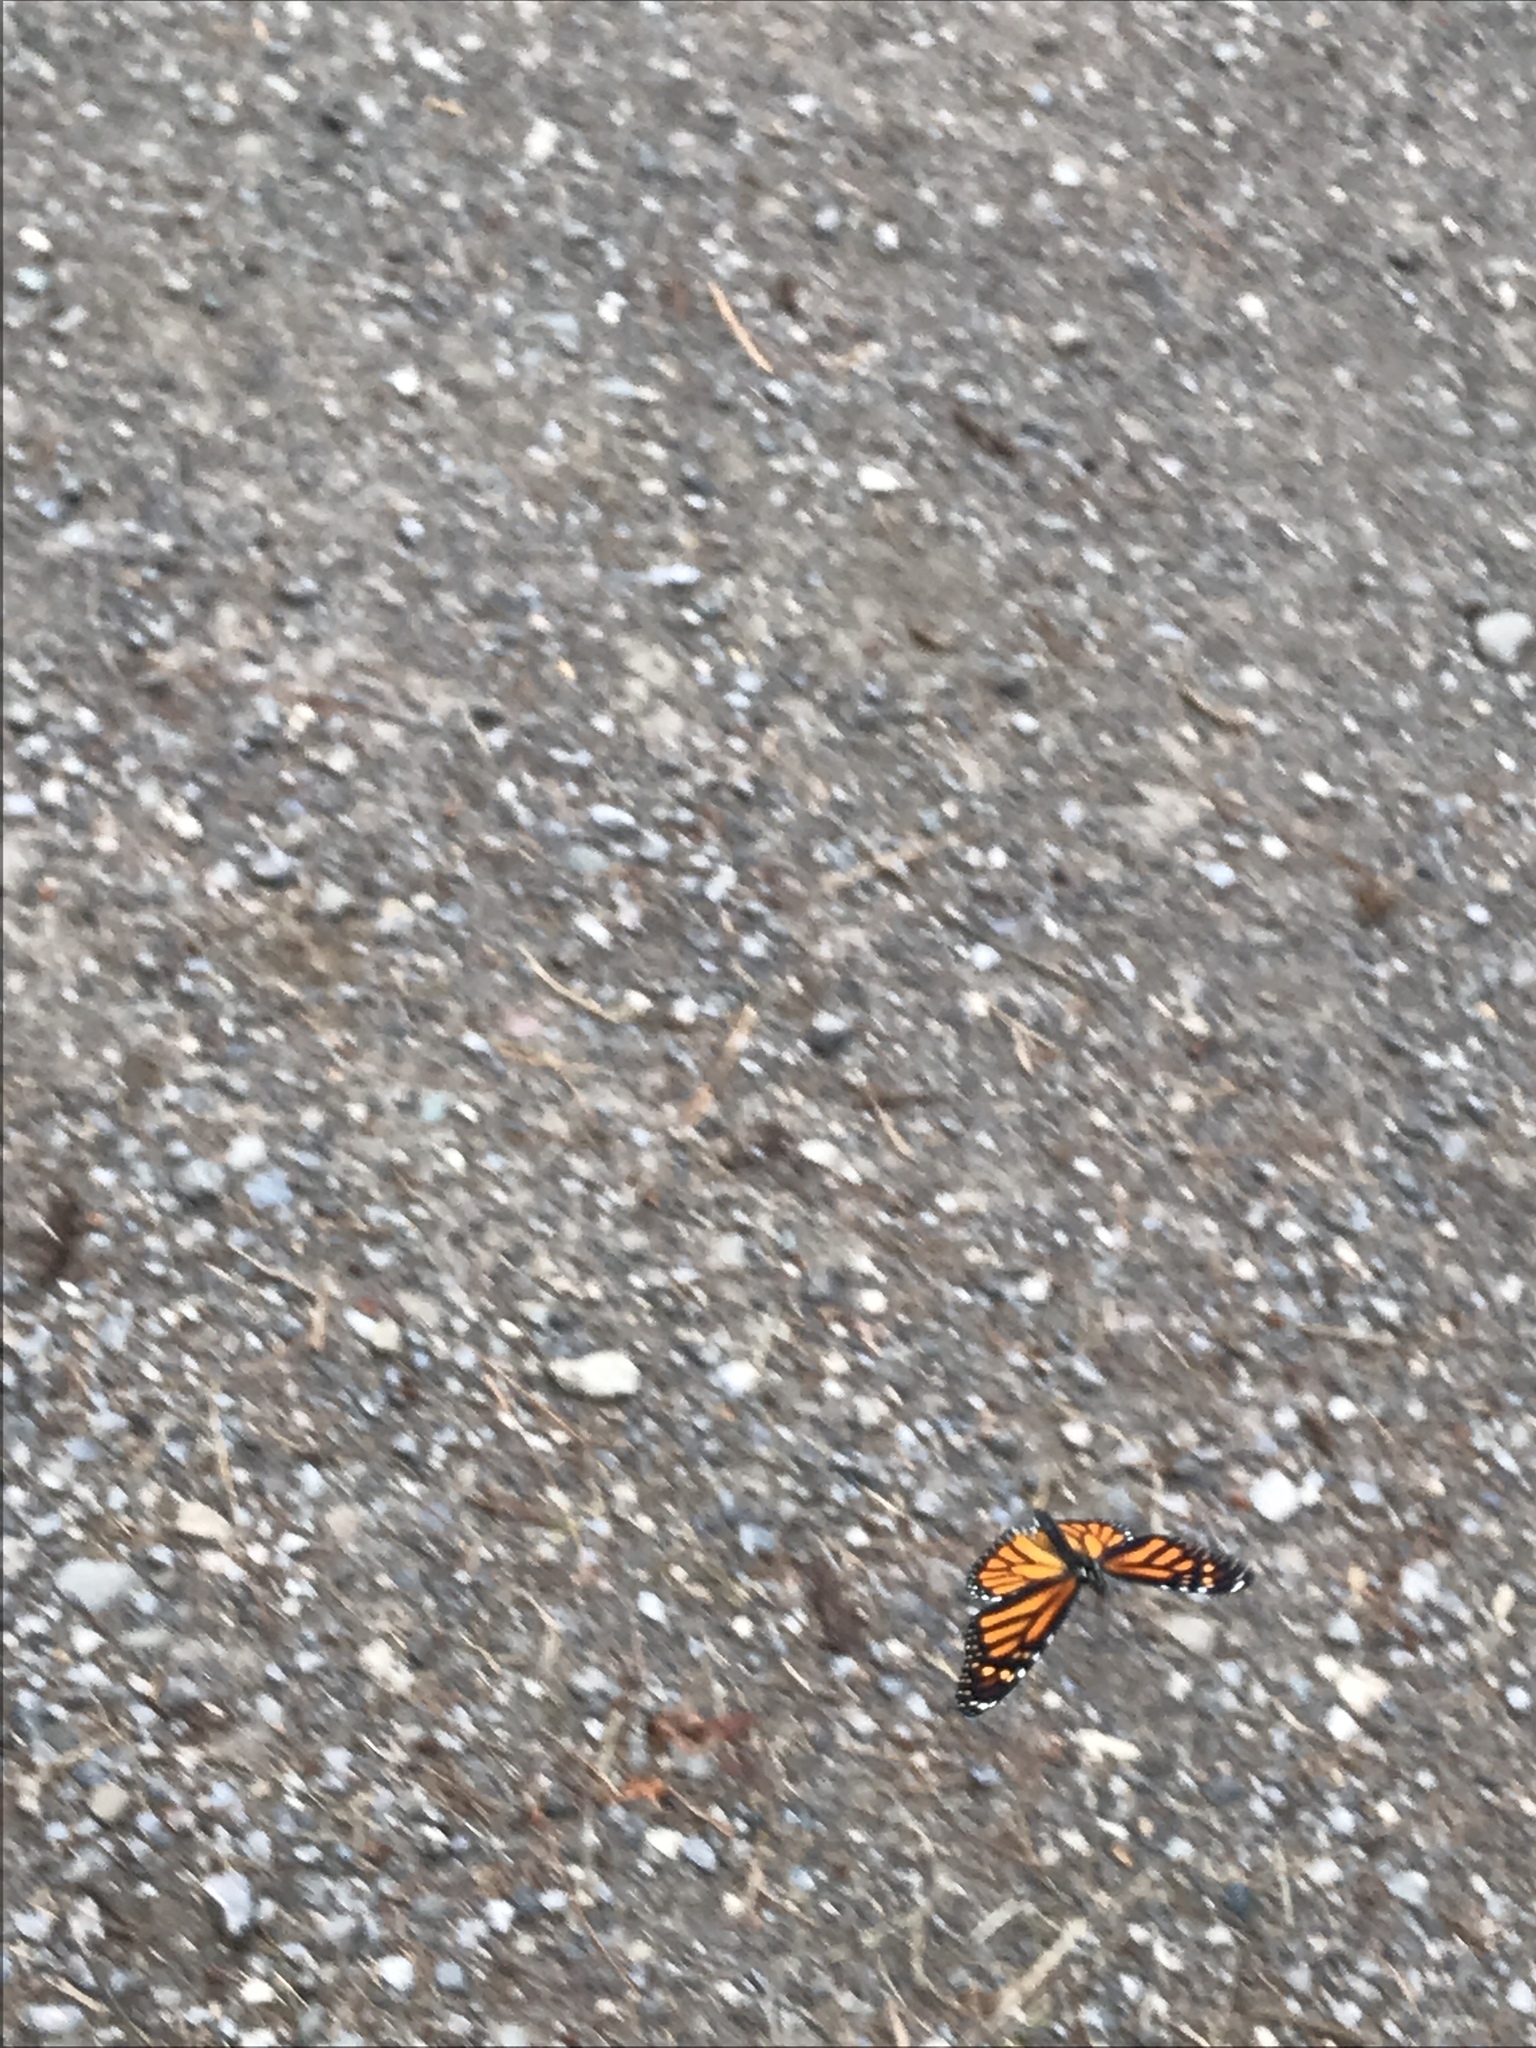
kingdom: Animalia
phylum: Arthropoda
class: Insecta
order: Lepidoptera
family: Nymphalidae
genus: Danaus
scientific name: Danaus plexippus
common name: Monarch
